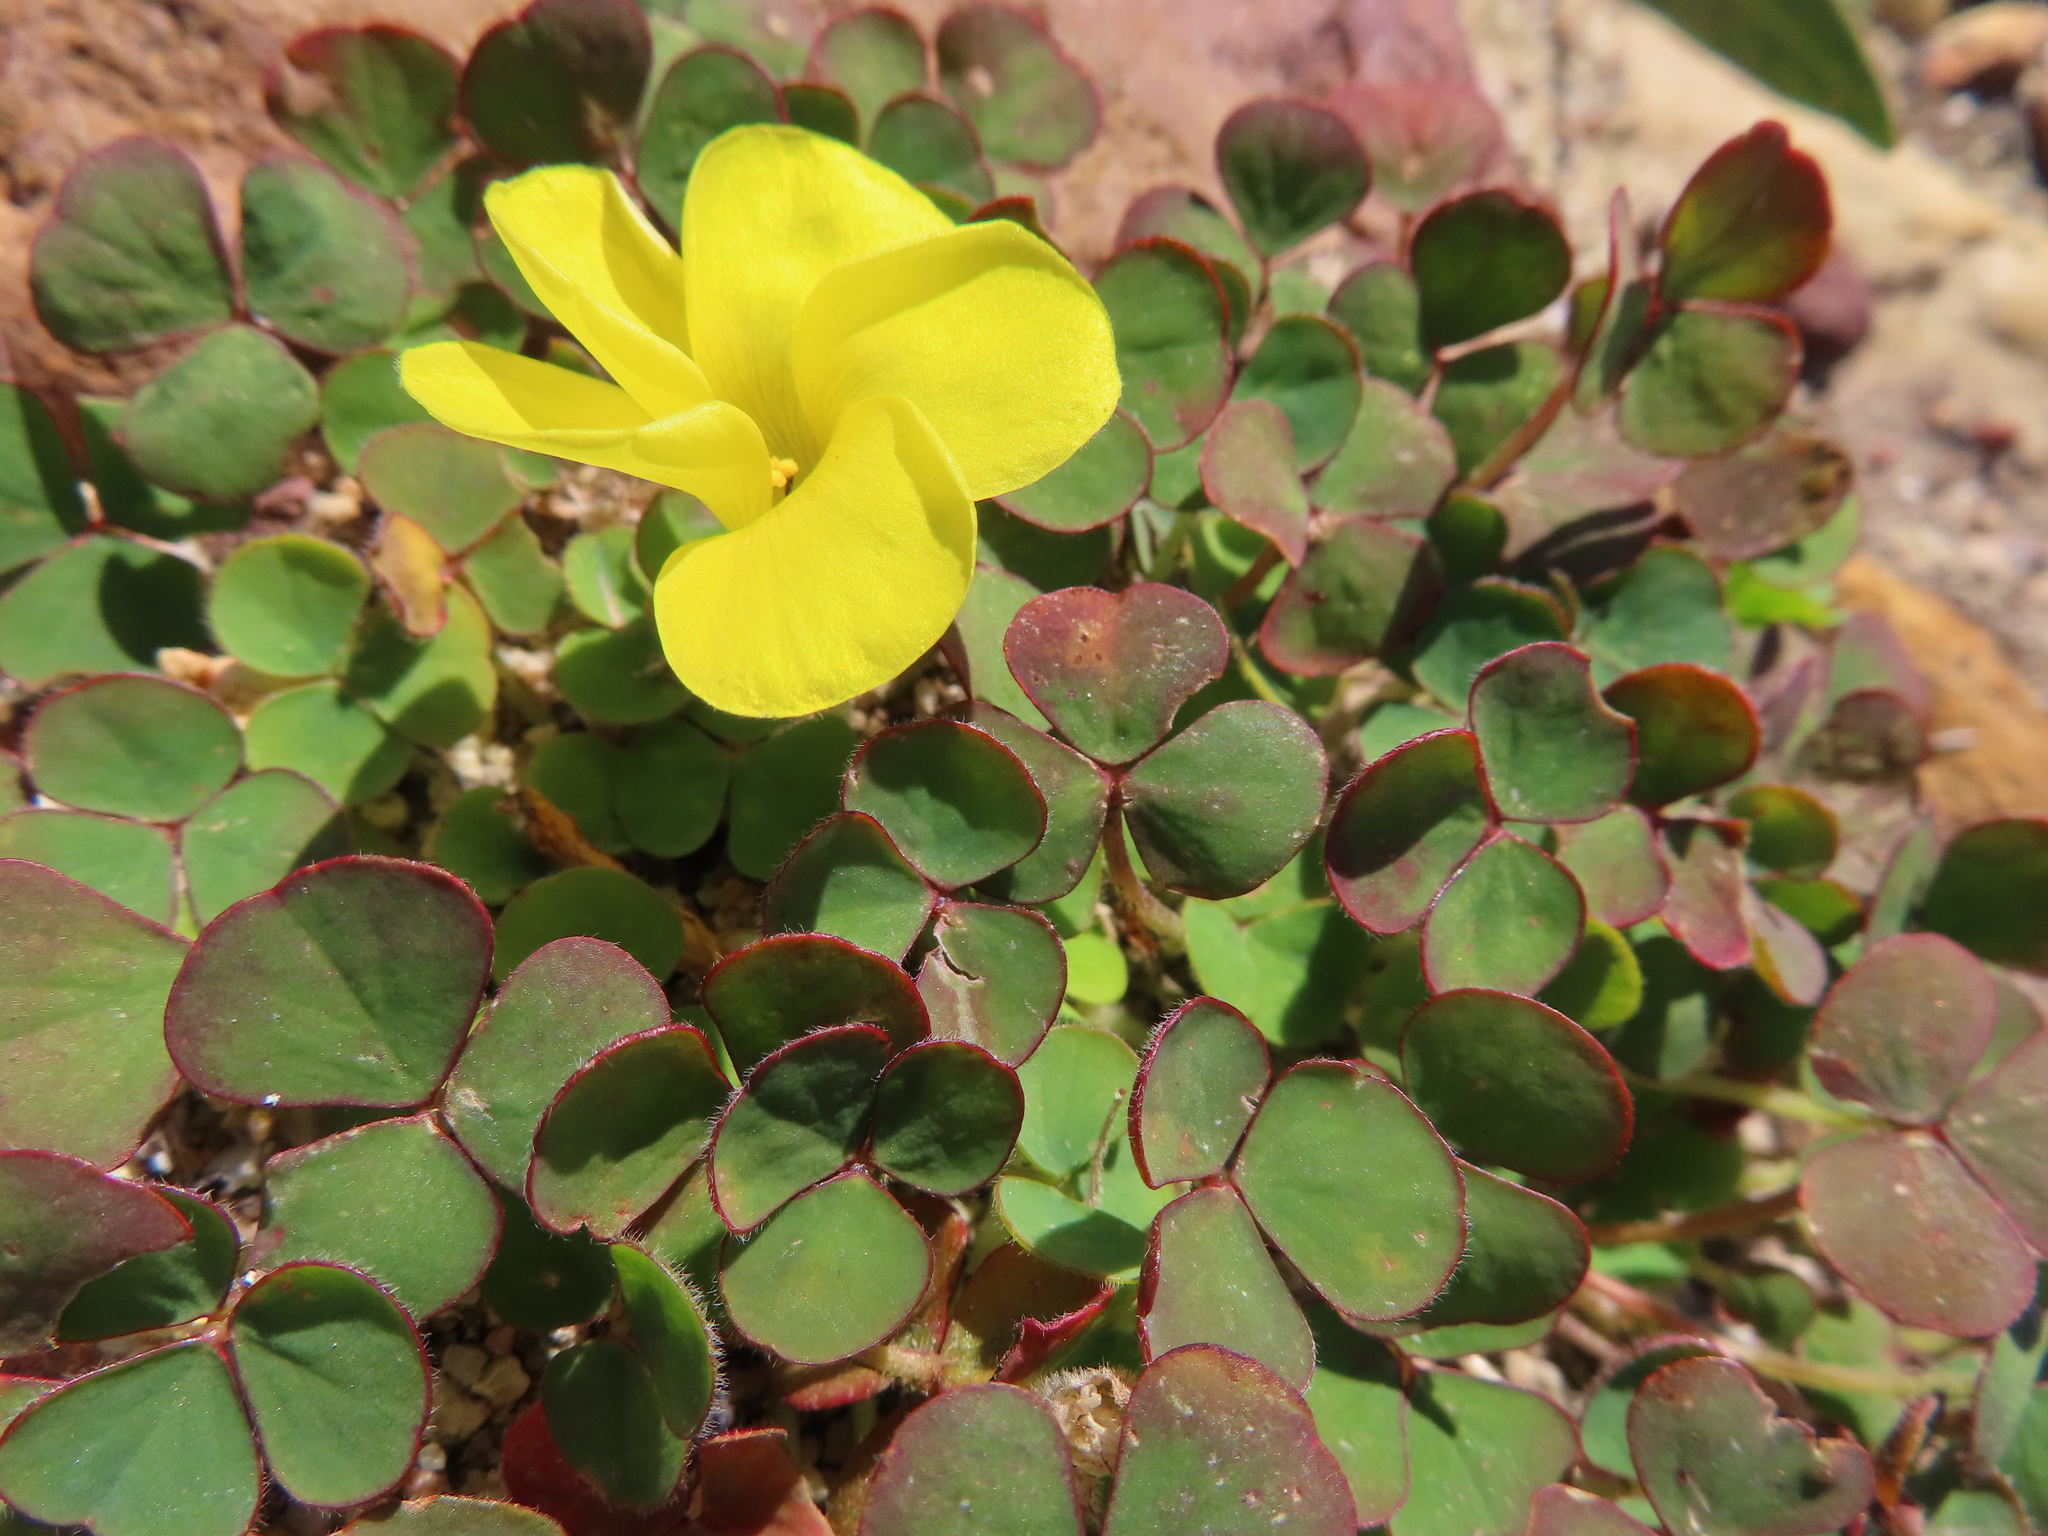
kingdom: Plantae
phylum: Tracheophyta
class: Magnoliopsida
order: Oxalidales
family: Oxalidaceae
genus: Oxalis
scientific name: Oxalis luteola
